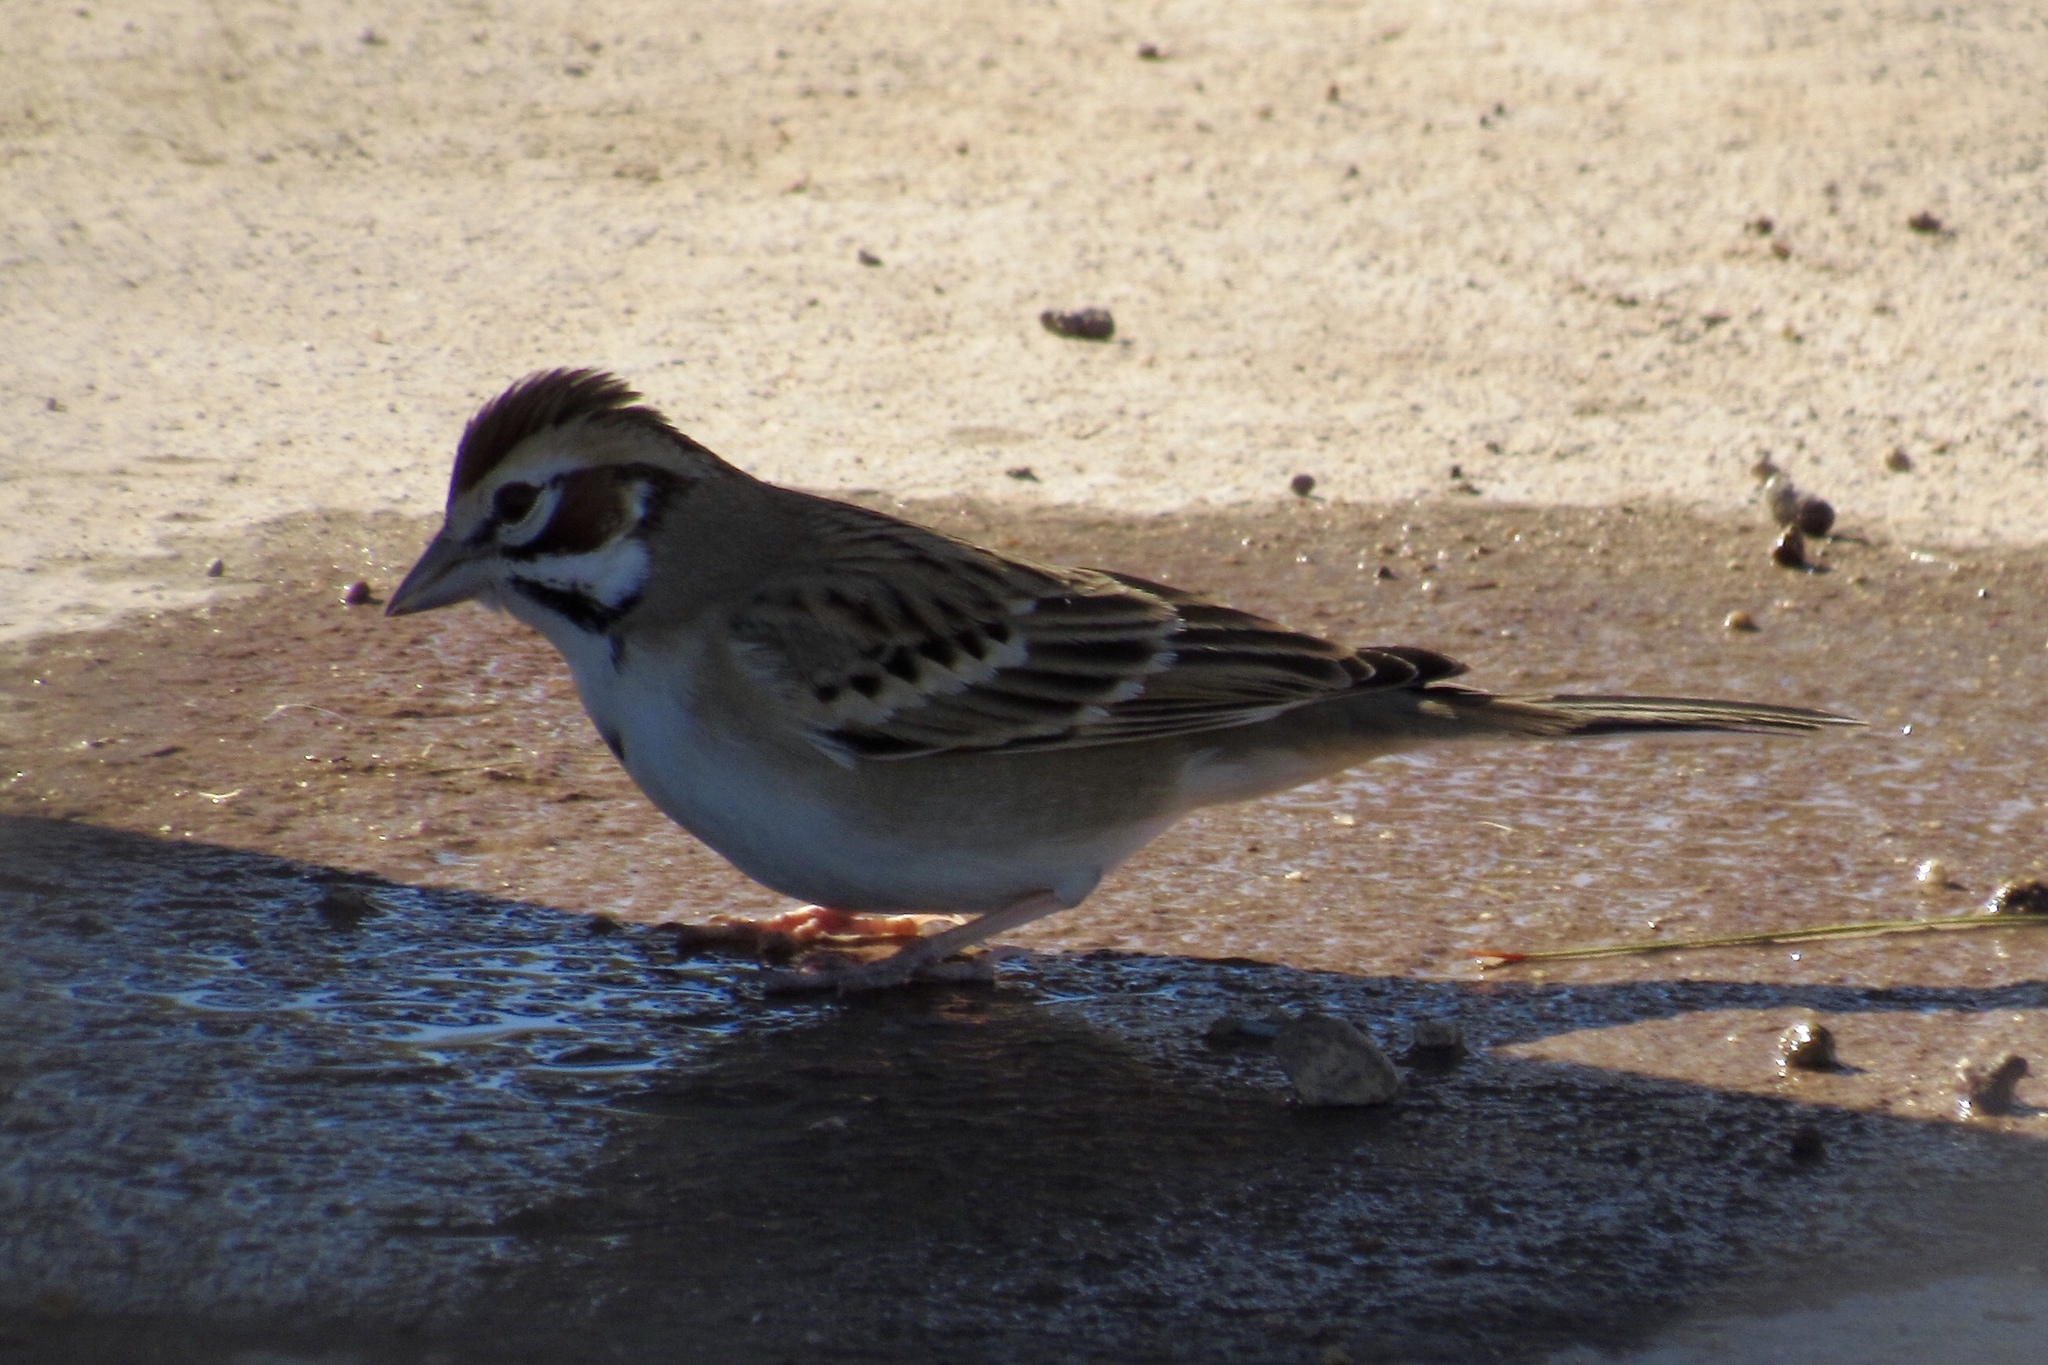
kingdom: Animalia
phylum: Chordata
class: Aves
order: Passeriformes
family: Passerellidae
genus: Chondestes
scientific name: Chondestes grammacus
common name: Lark sparrow
